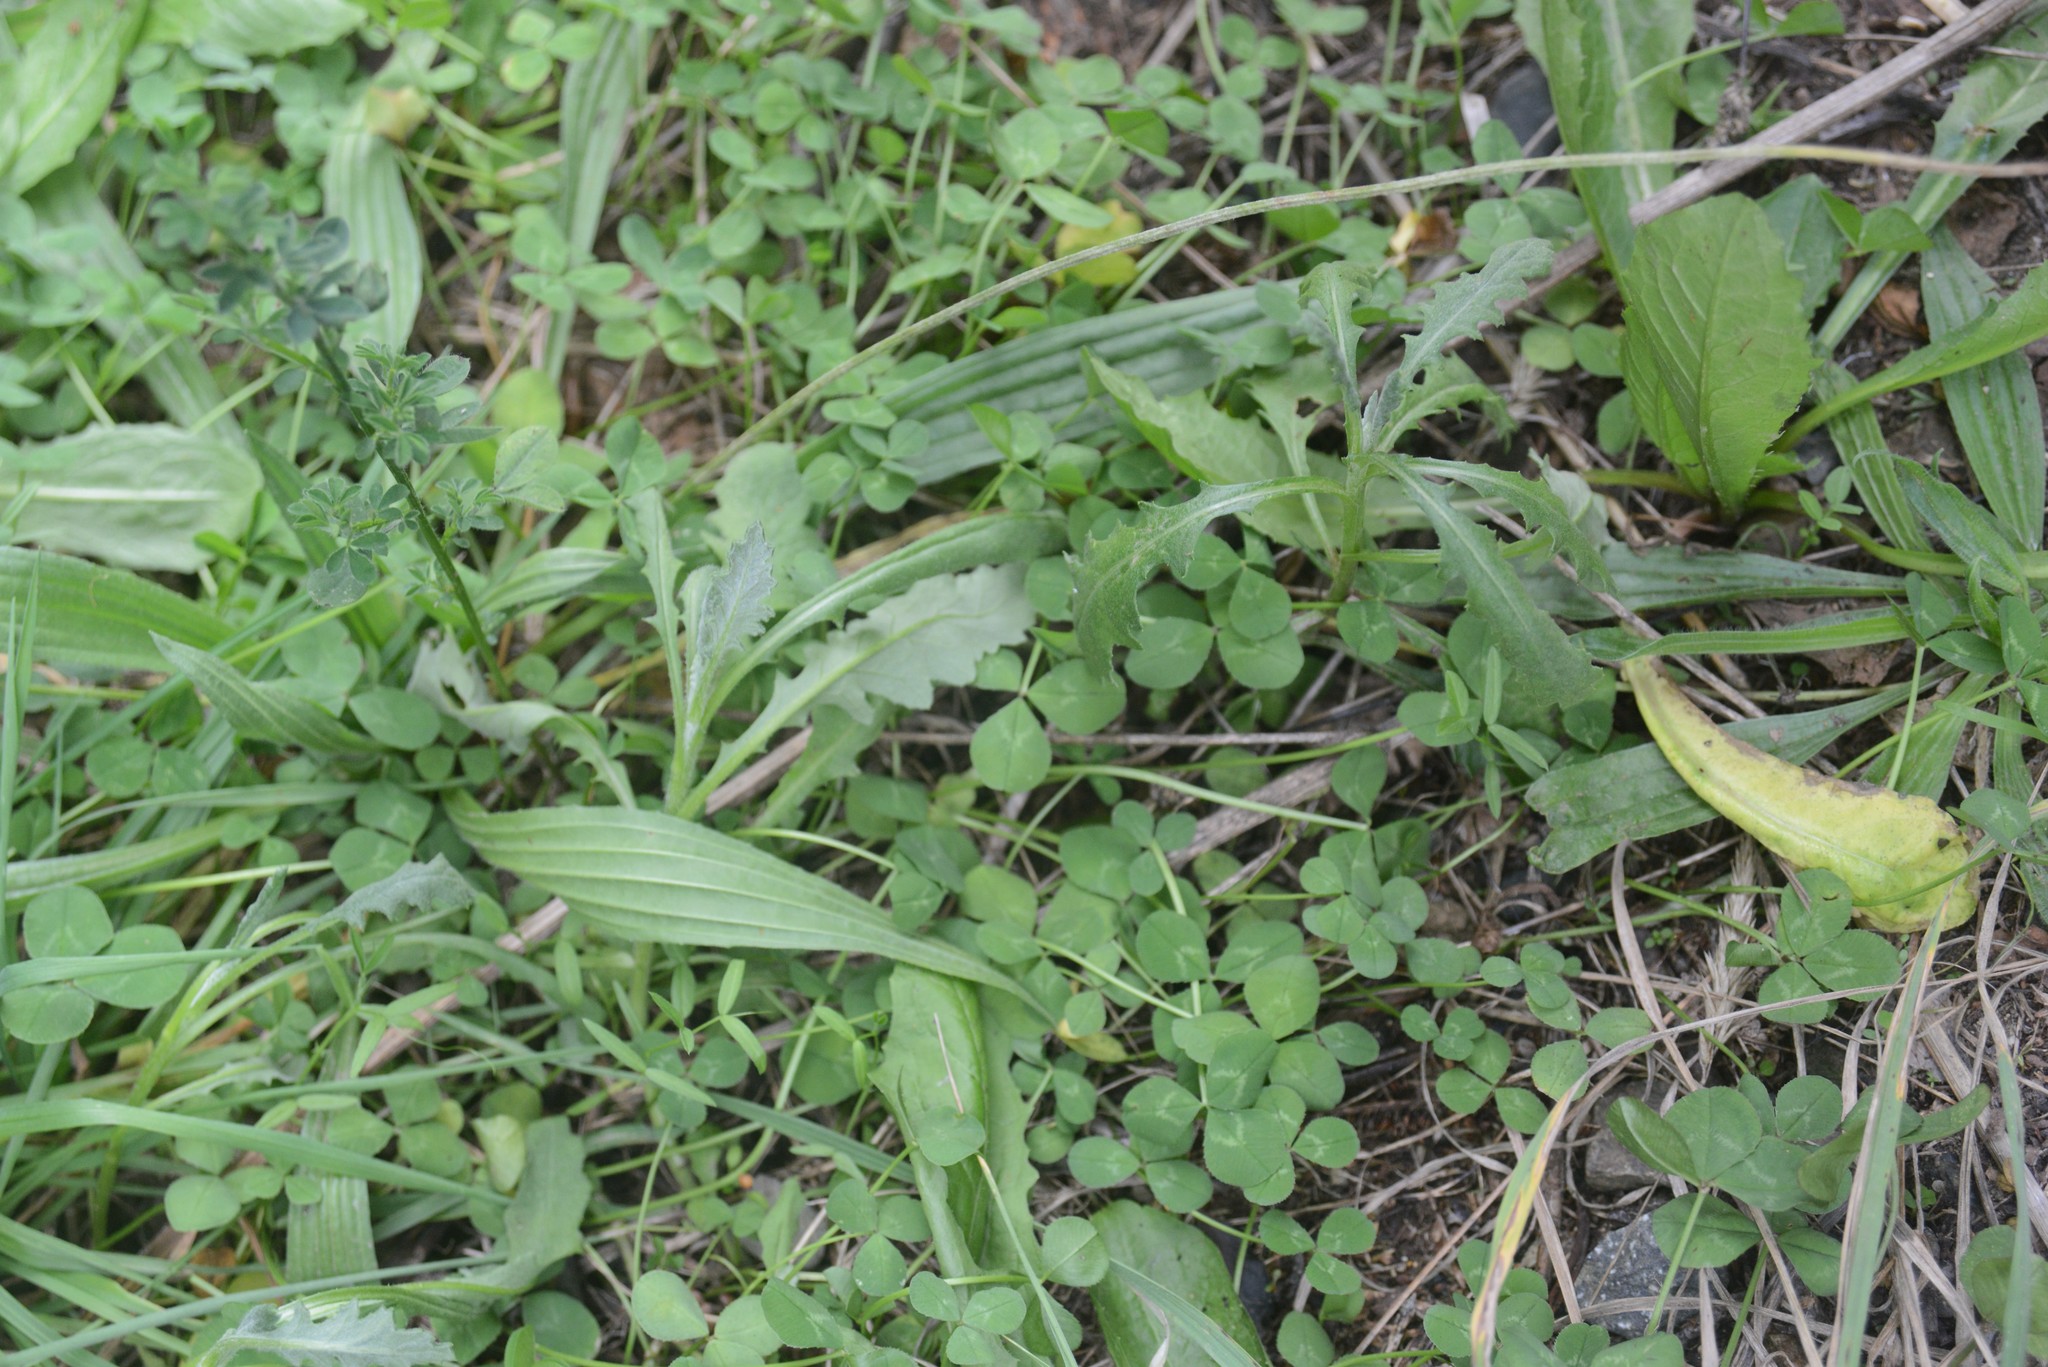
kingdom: Plantae
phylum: Tracheophyta
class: Magnoliopsida
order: Asterales
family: Asteraceae
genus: Senecio
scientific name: Senecio glomeratus
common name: Cutleaf burnweed
